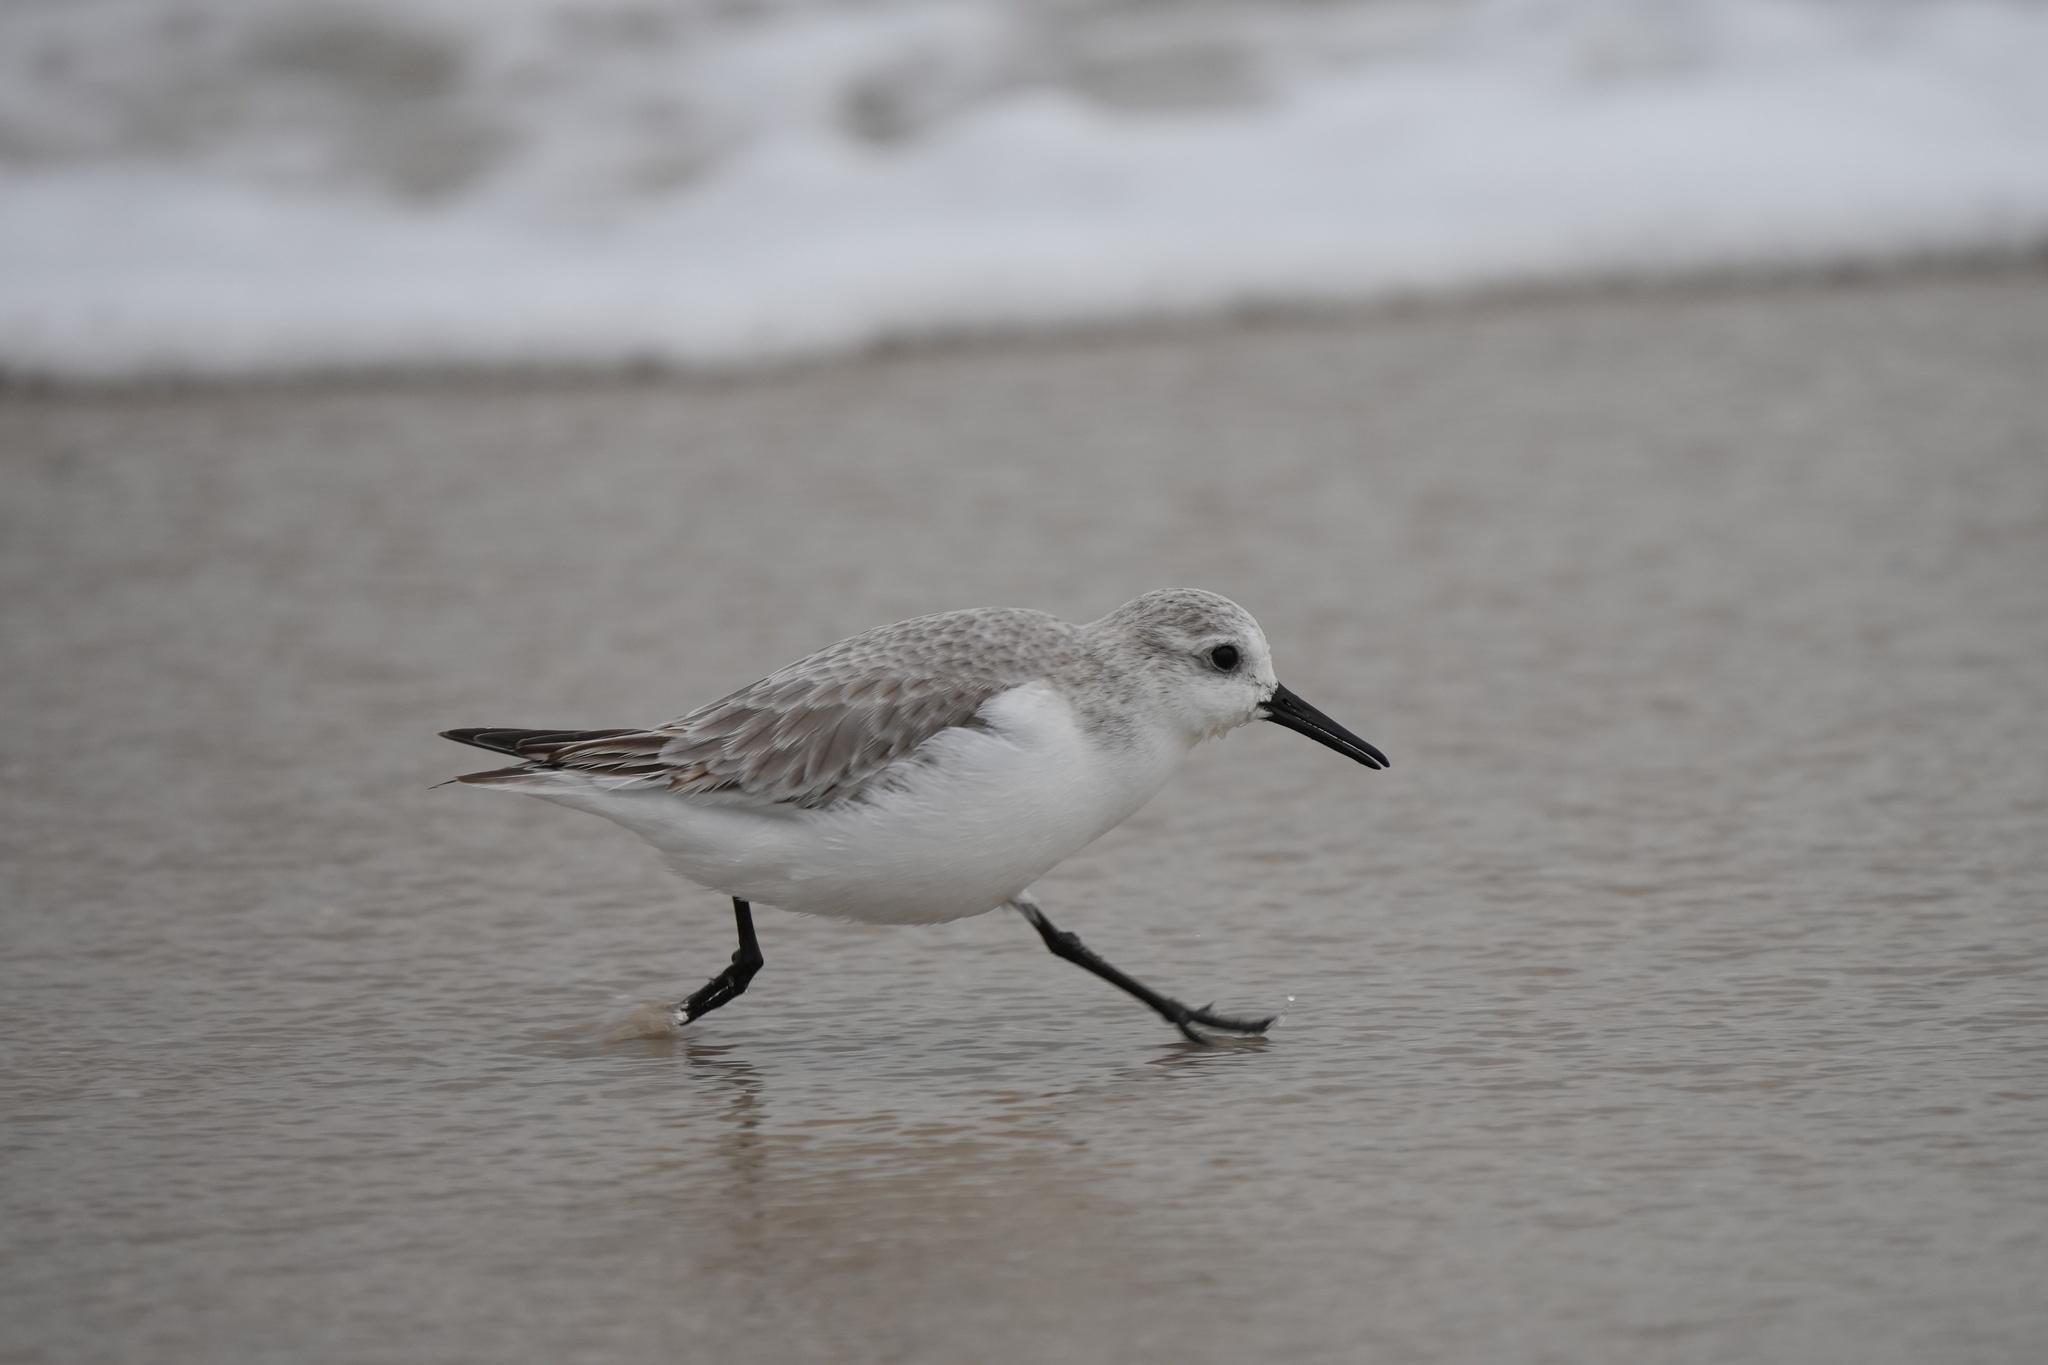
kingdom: Animalia
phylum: Chordata
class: Aves
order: Charadriiformes
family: Scolopacidae
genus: Calidris
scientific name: Calidris alba
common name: Sanderling
